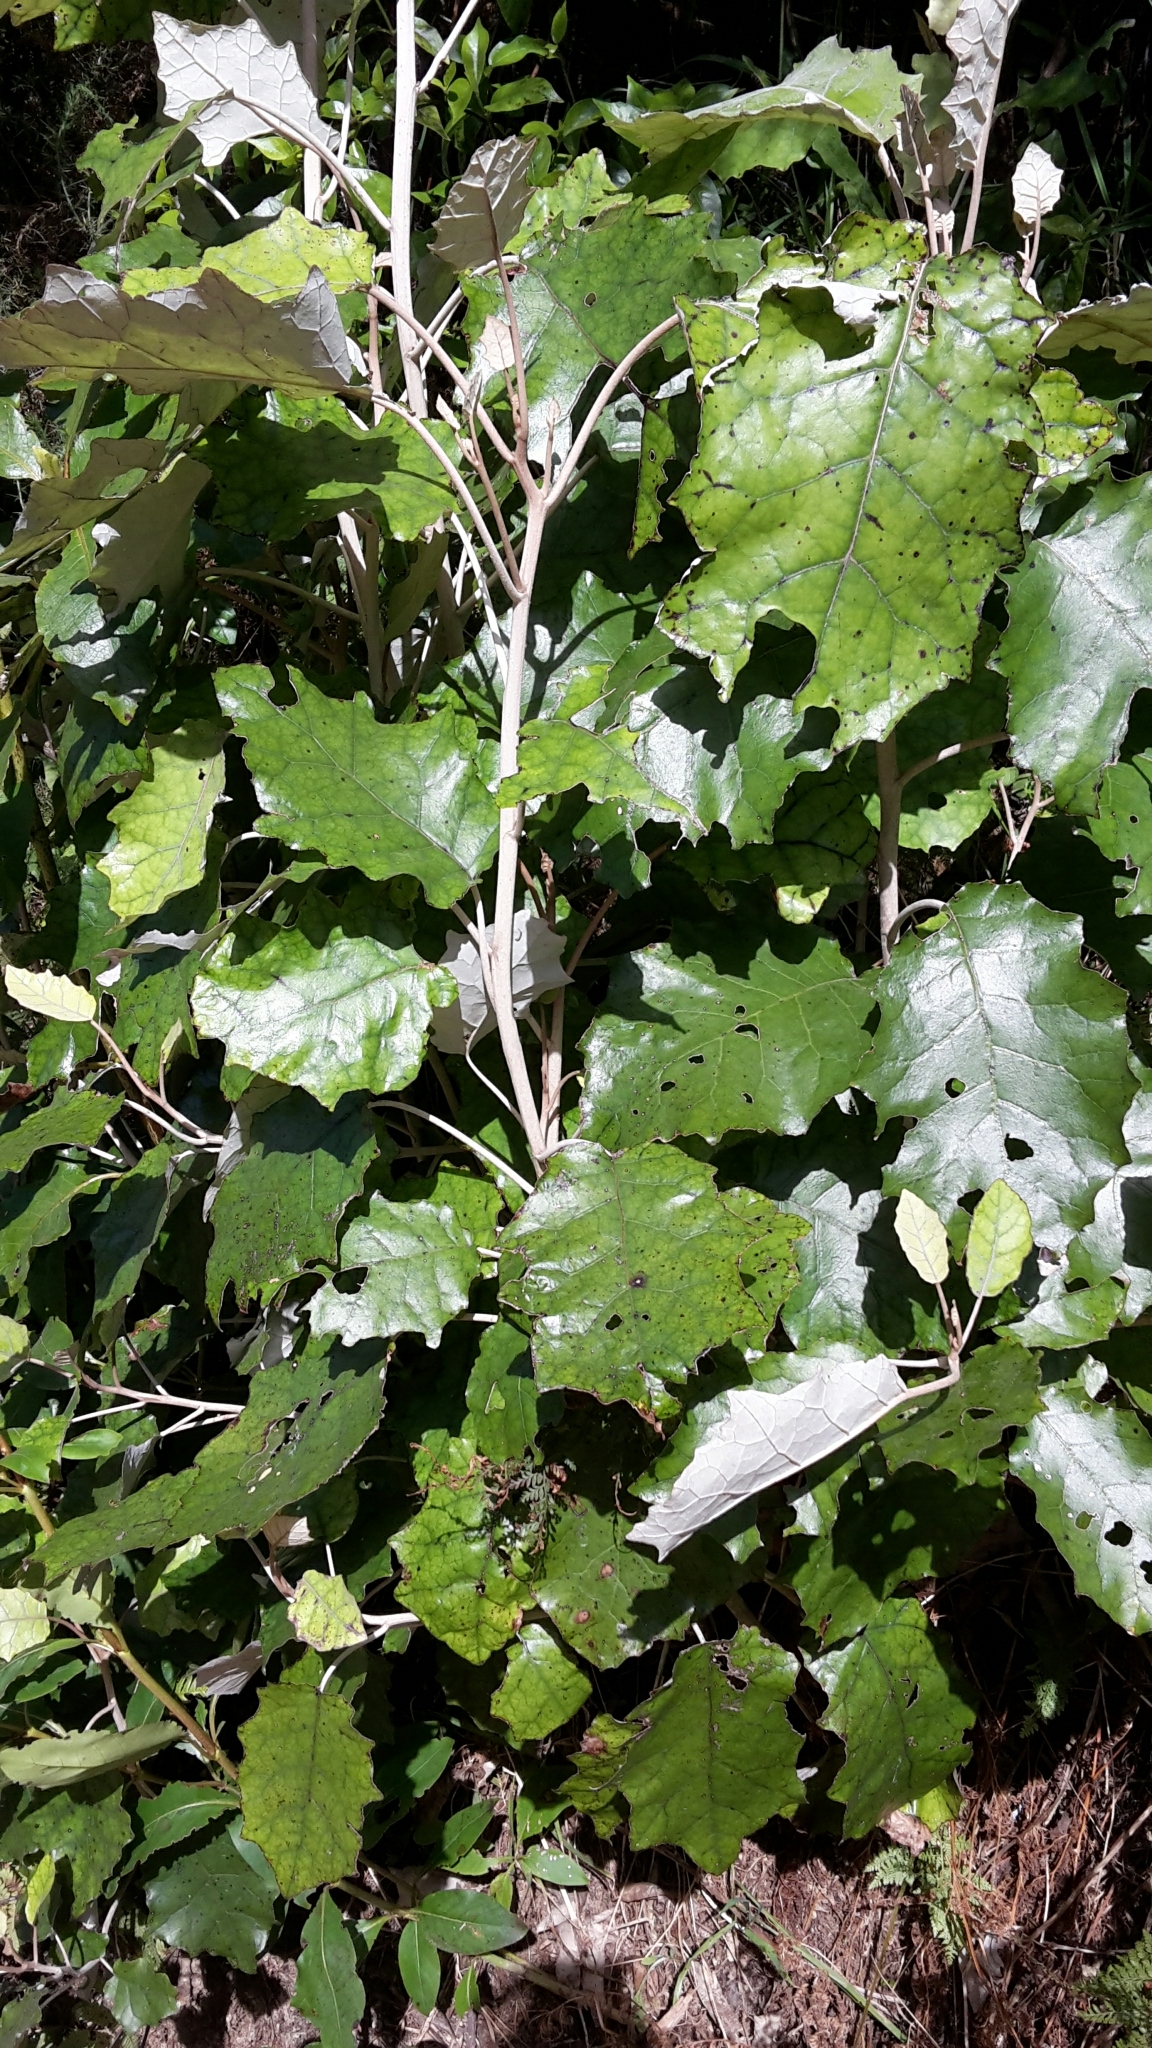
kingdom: Plantae
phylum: Tracheophyta
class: Magnoliopsida
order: Asterales
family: Asteraceae
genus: Brachyglottis
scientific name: Brachyglottis repanda
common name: Hedge ragwort
